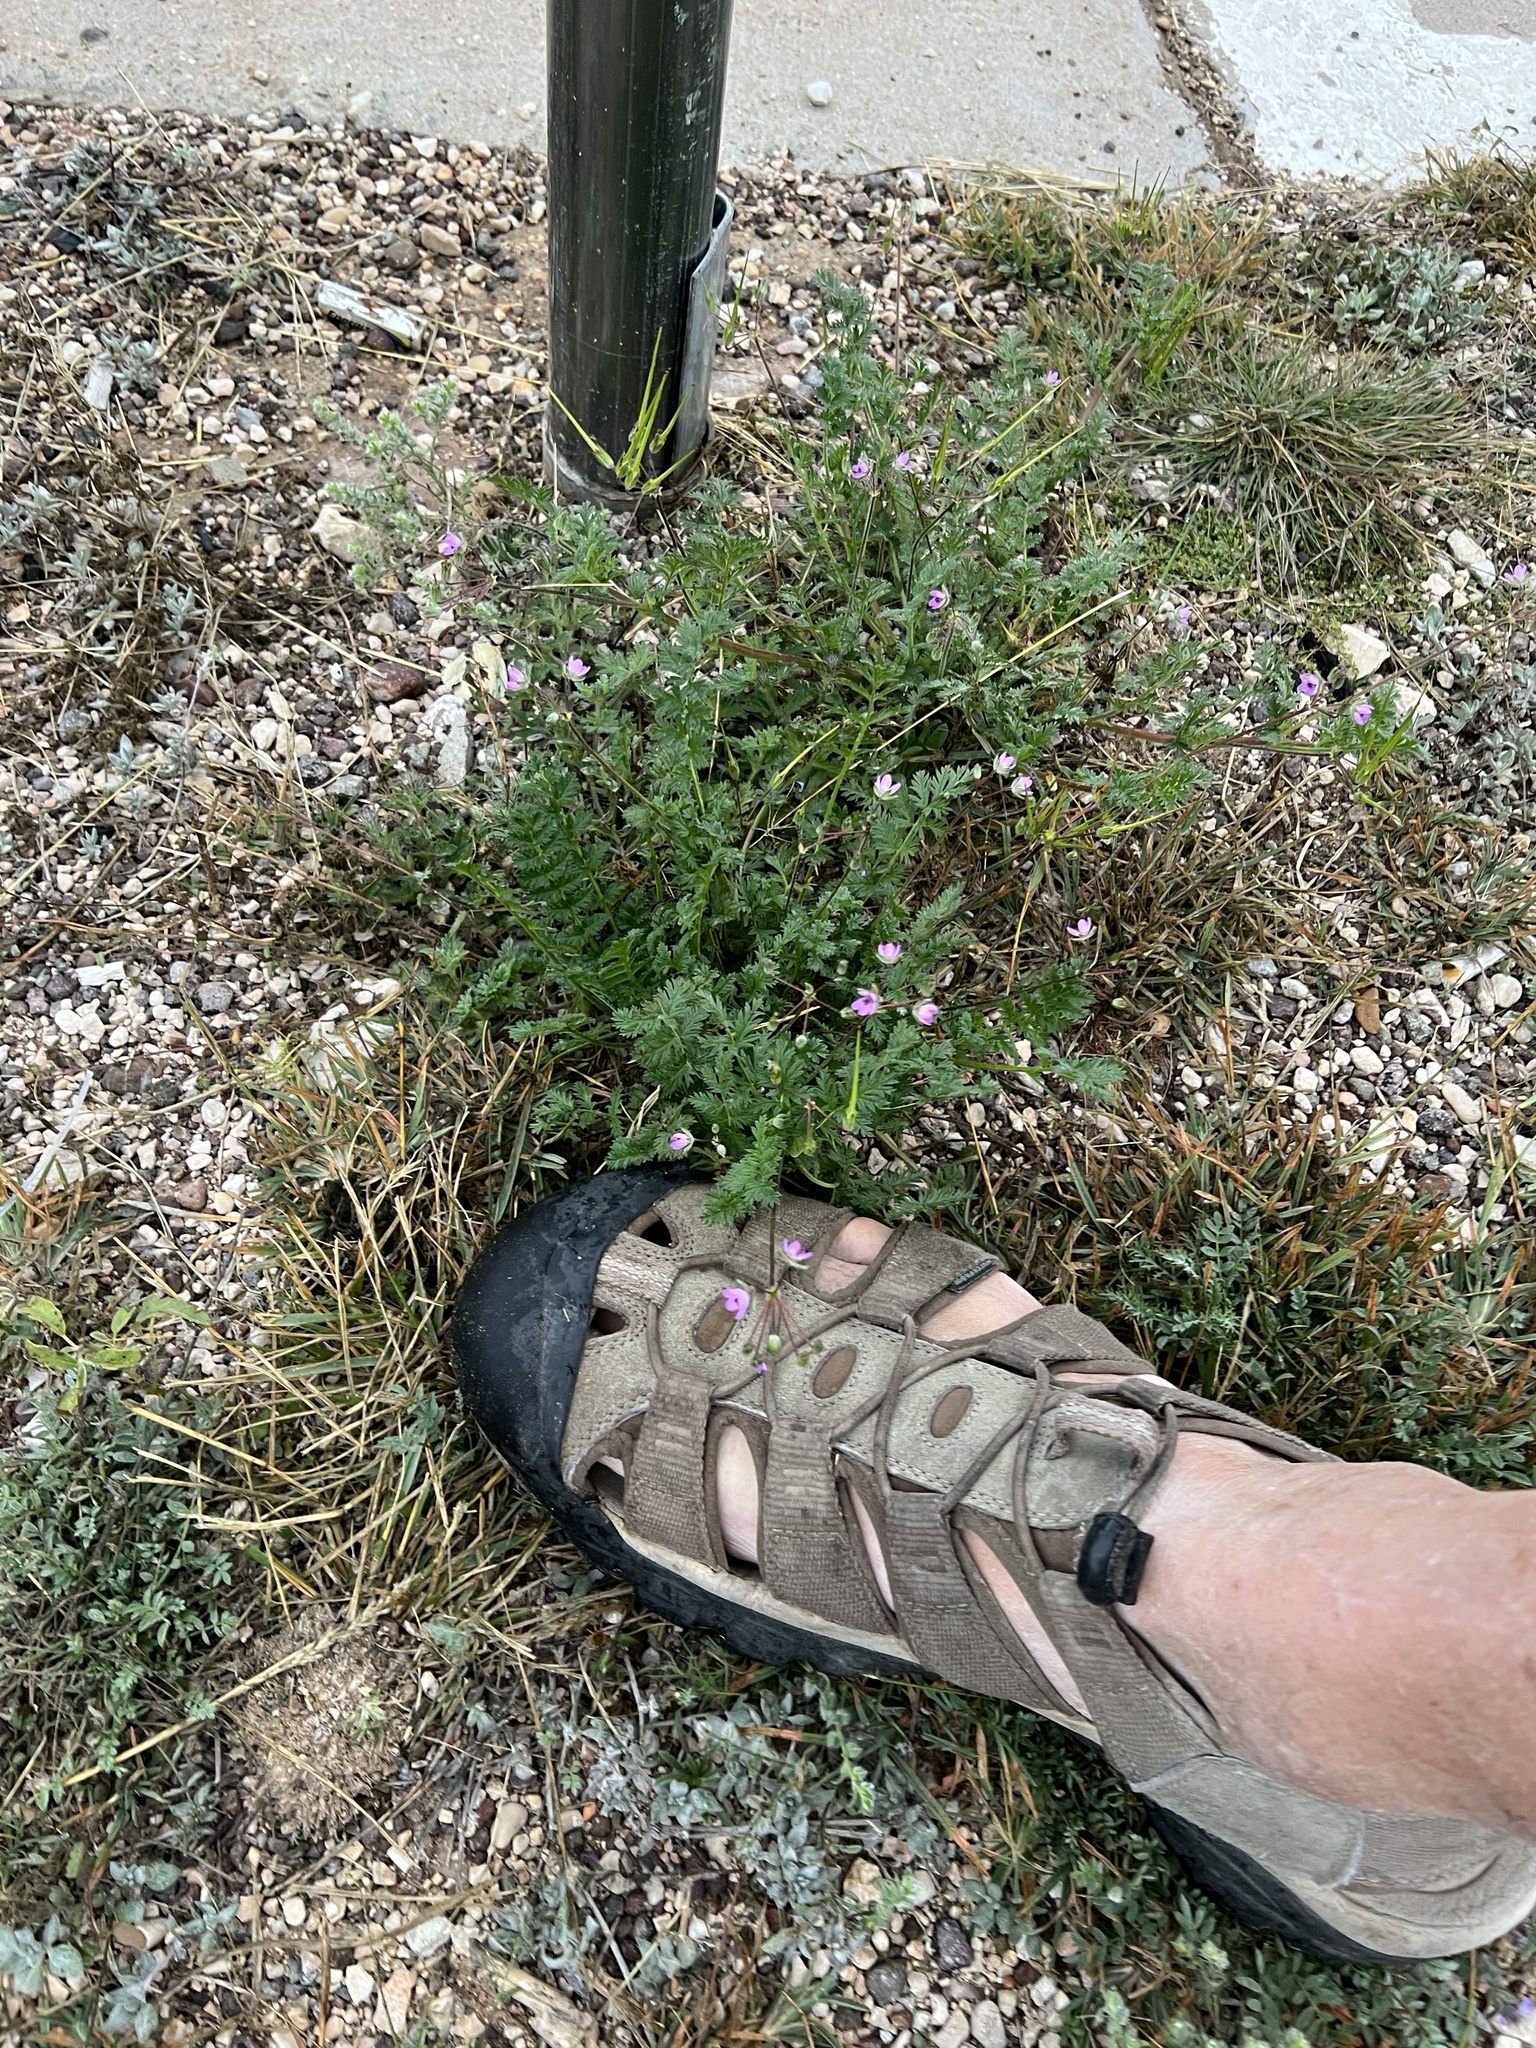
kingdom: Plantae
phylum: Tracheophyta
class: Magnoliopsida
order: Geraniales
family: Geraniaceae
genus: Erodium
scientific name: Erodium cicutarium
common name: Common stork's-bill
